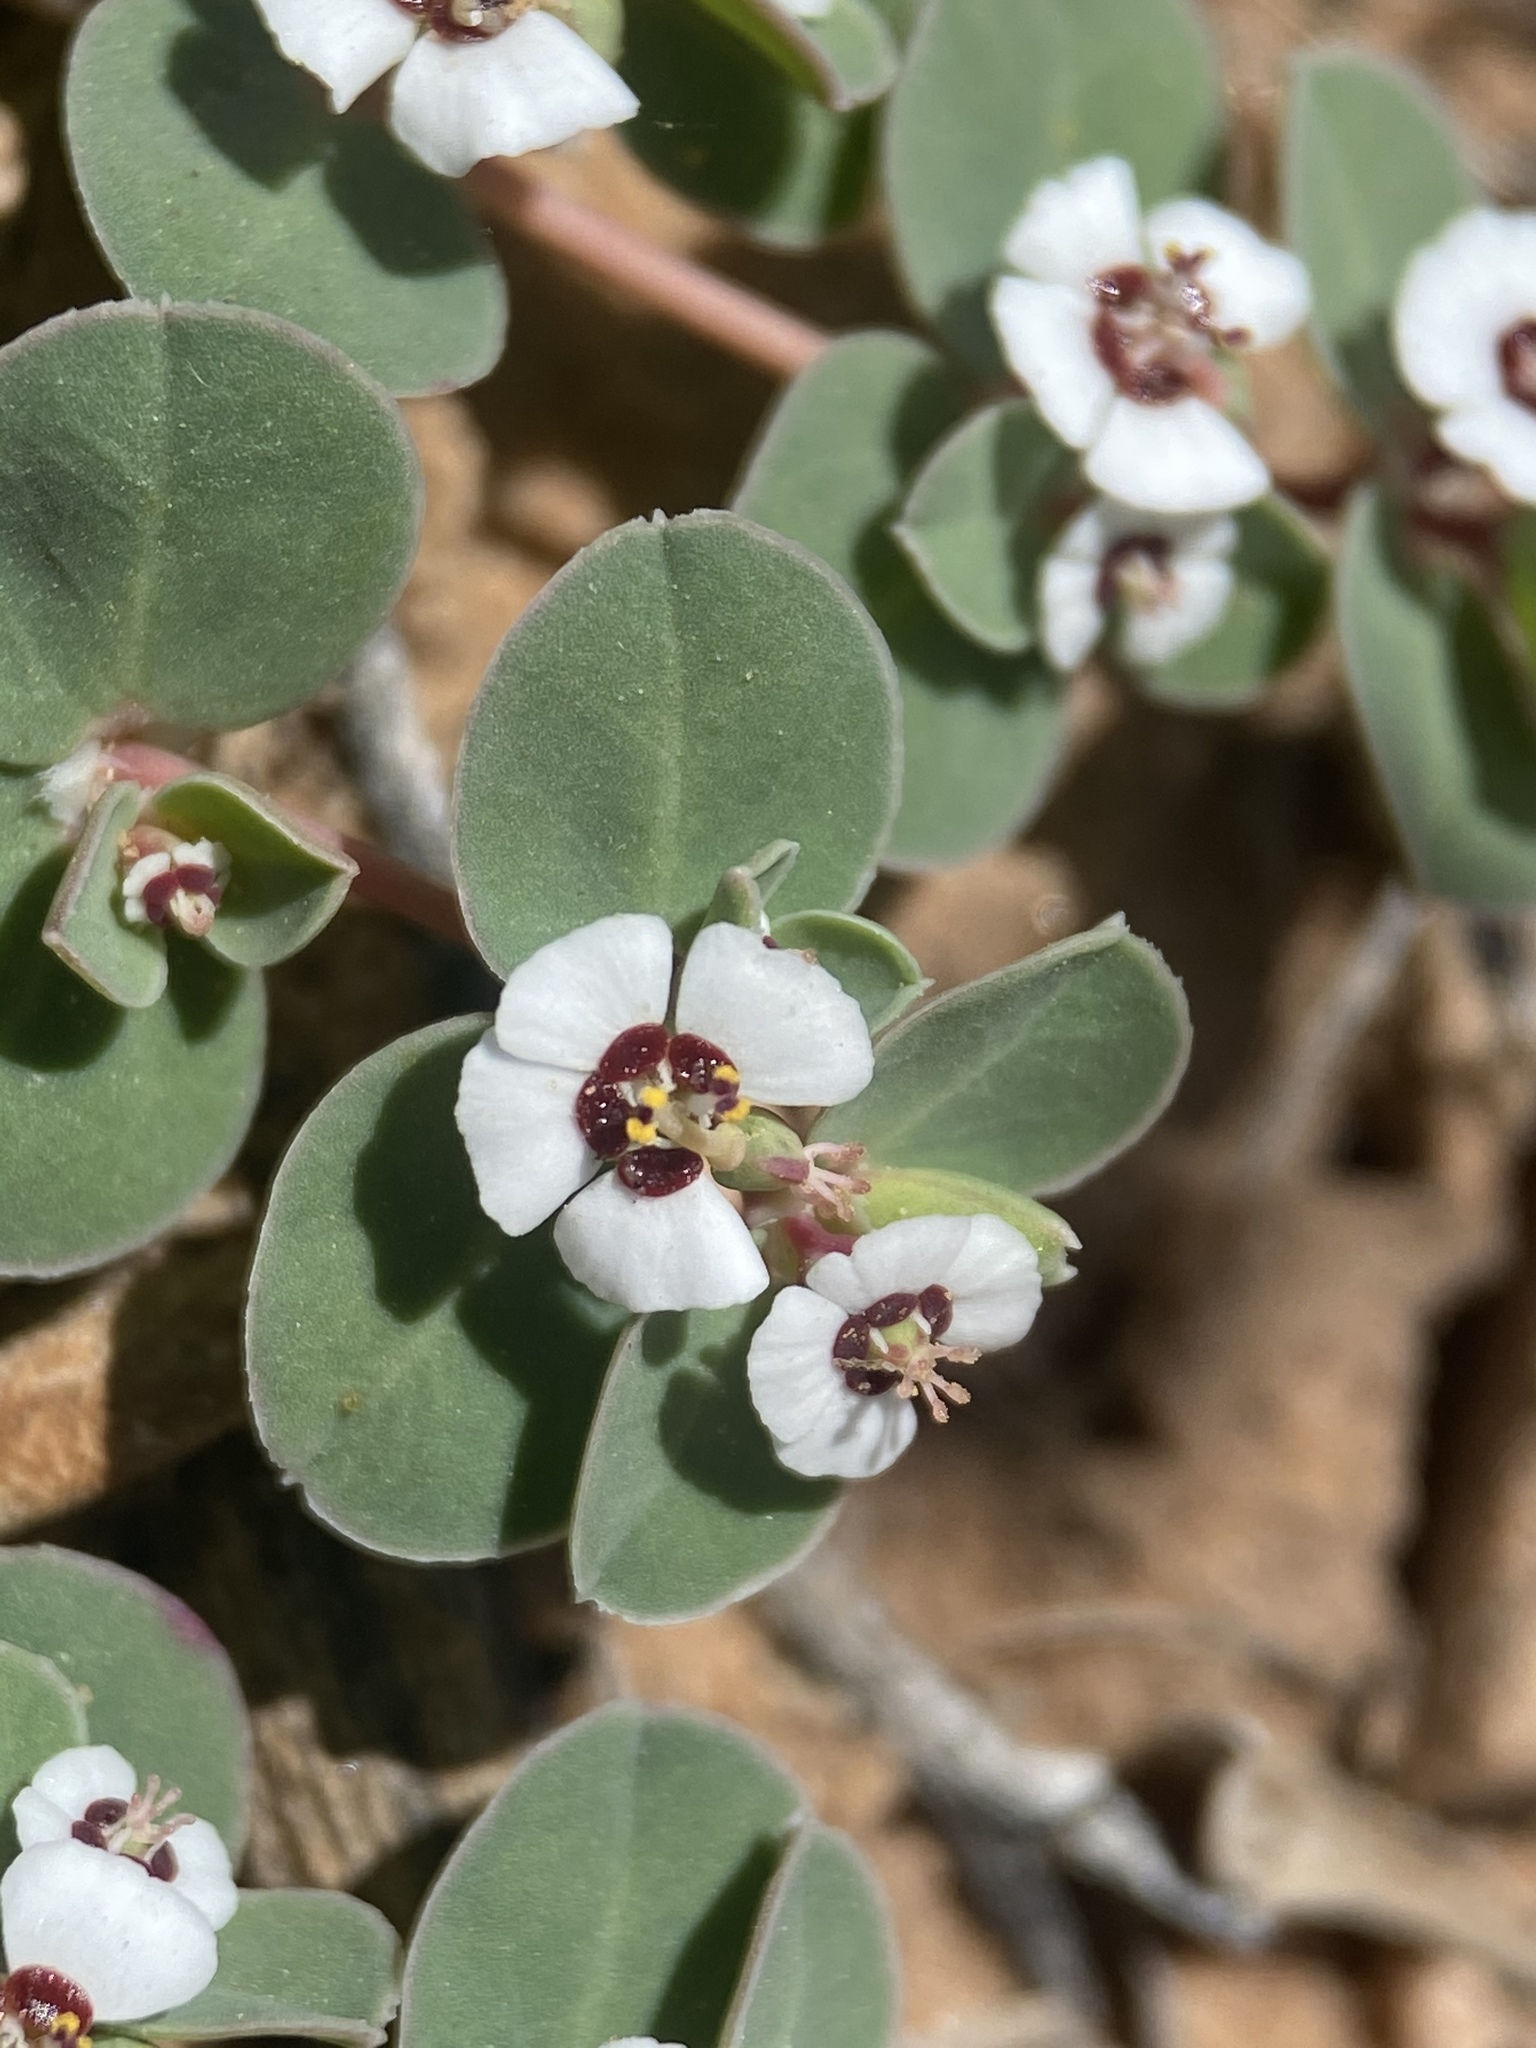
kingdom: Plantae
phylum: Tracheophyta
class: Magnoliopsida
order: Malpighiales
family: Euphorbiaceae
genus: Euphorbia
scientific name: Euphorbia albomarginata
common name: Whitemargin sandmat
